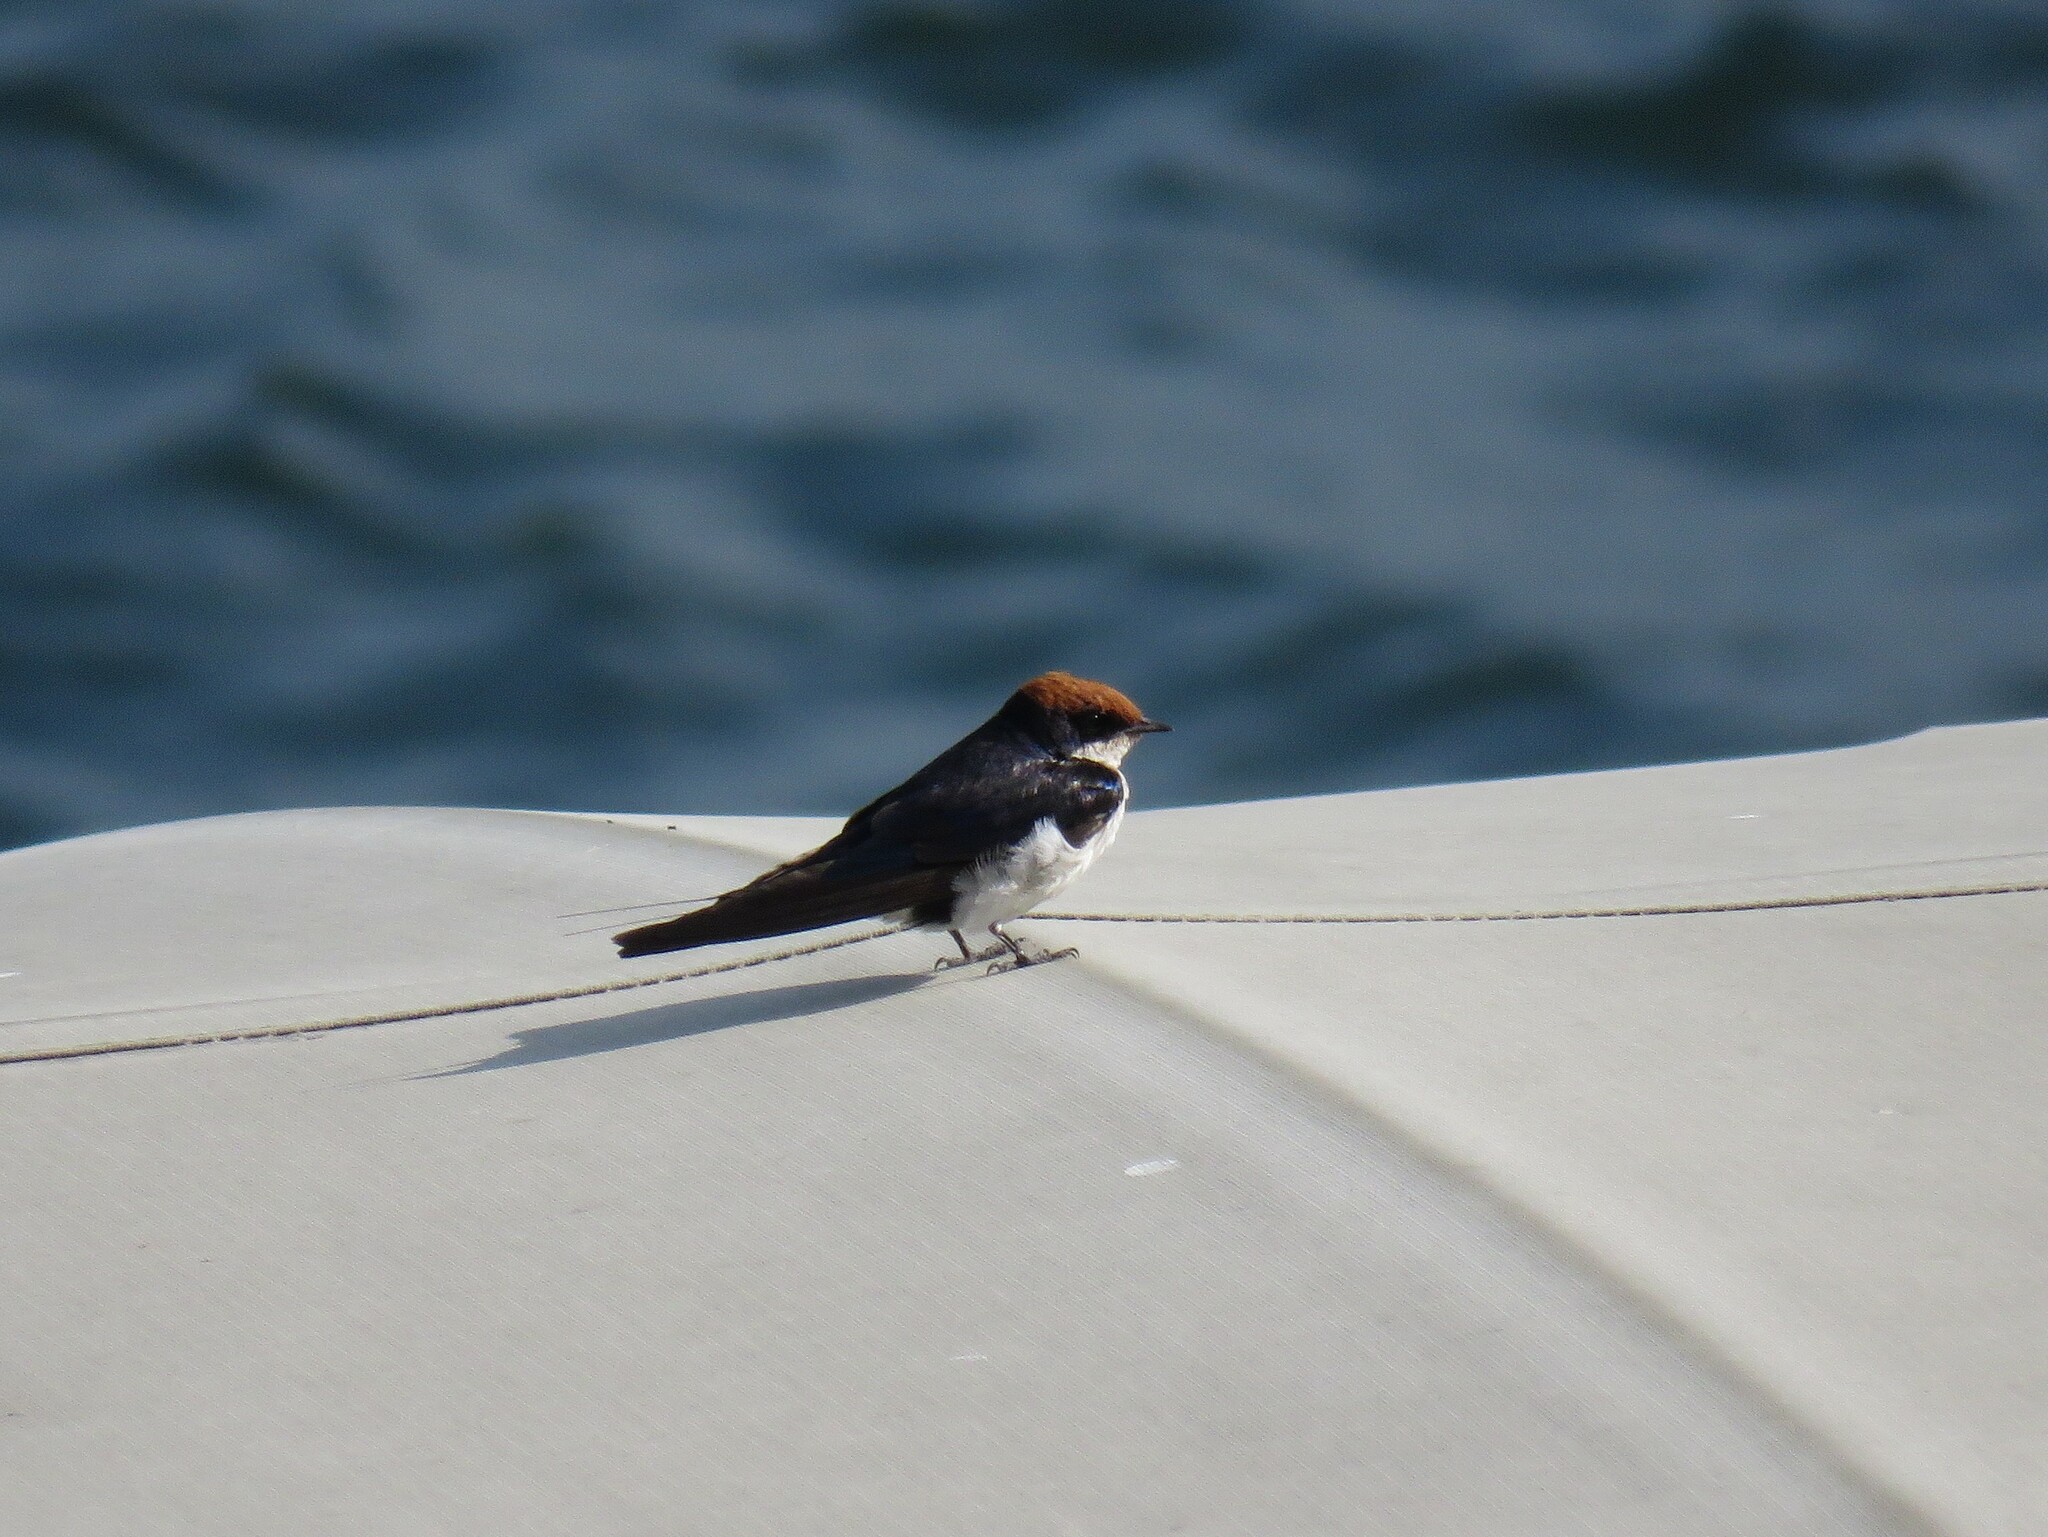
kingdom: Animalia
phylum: Chordata
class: Aves
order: Passeriformes
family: Hirundinidae
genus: Hirundo
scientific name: Hirundo smithii
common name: Wire-tailed swallow
